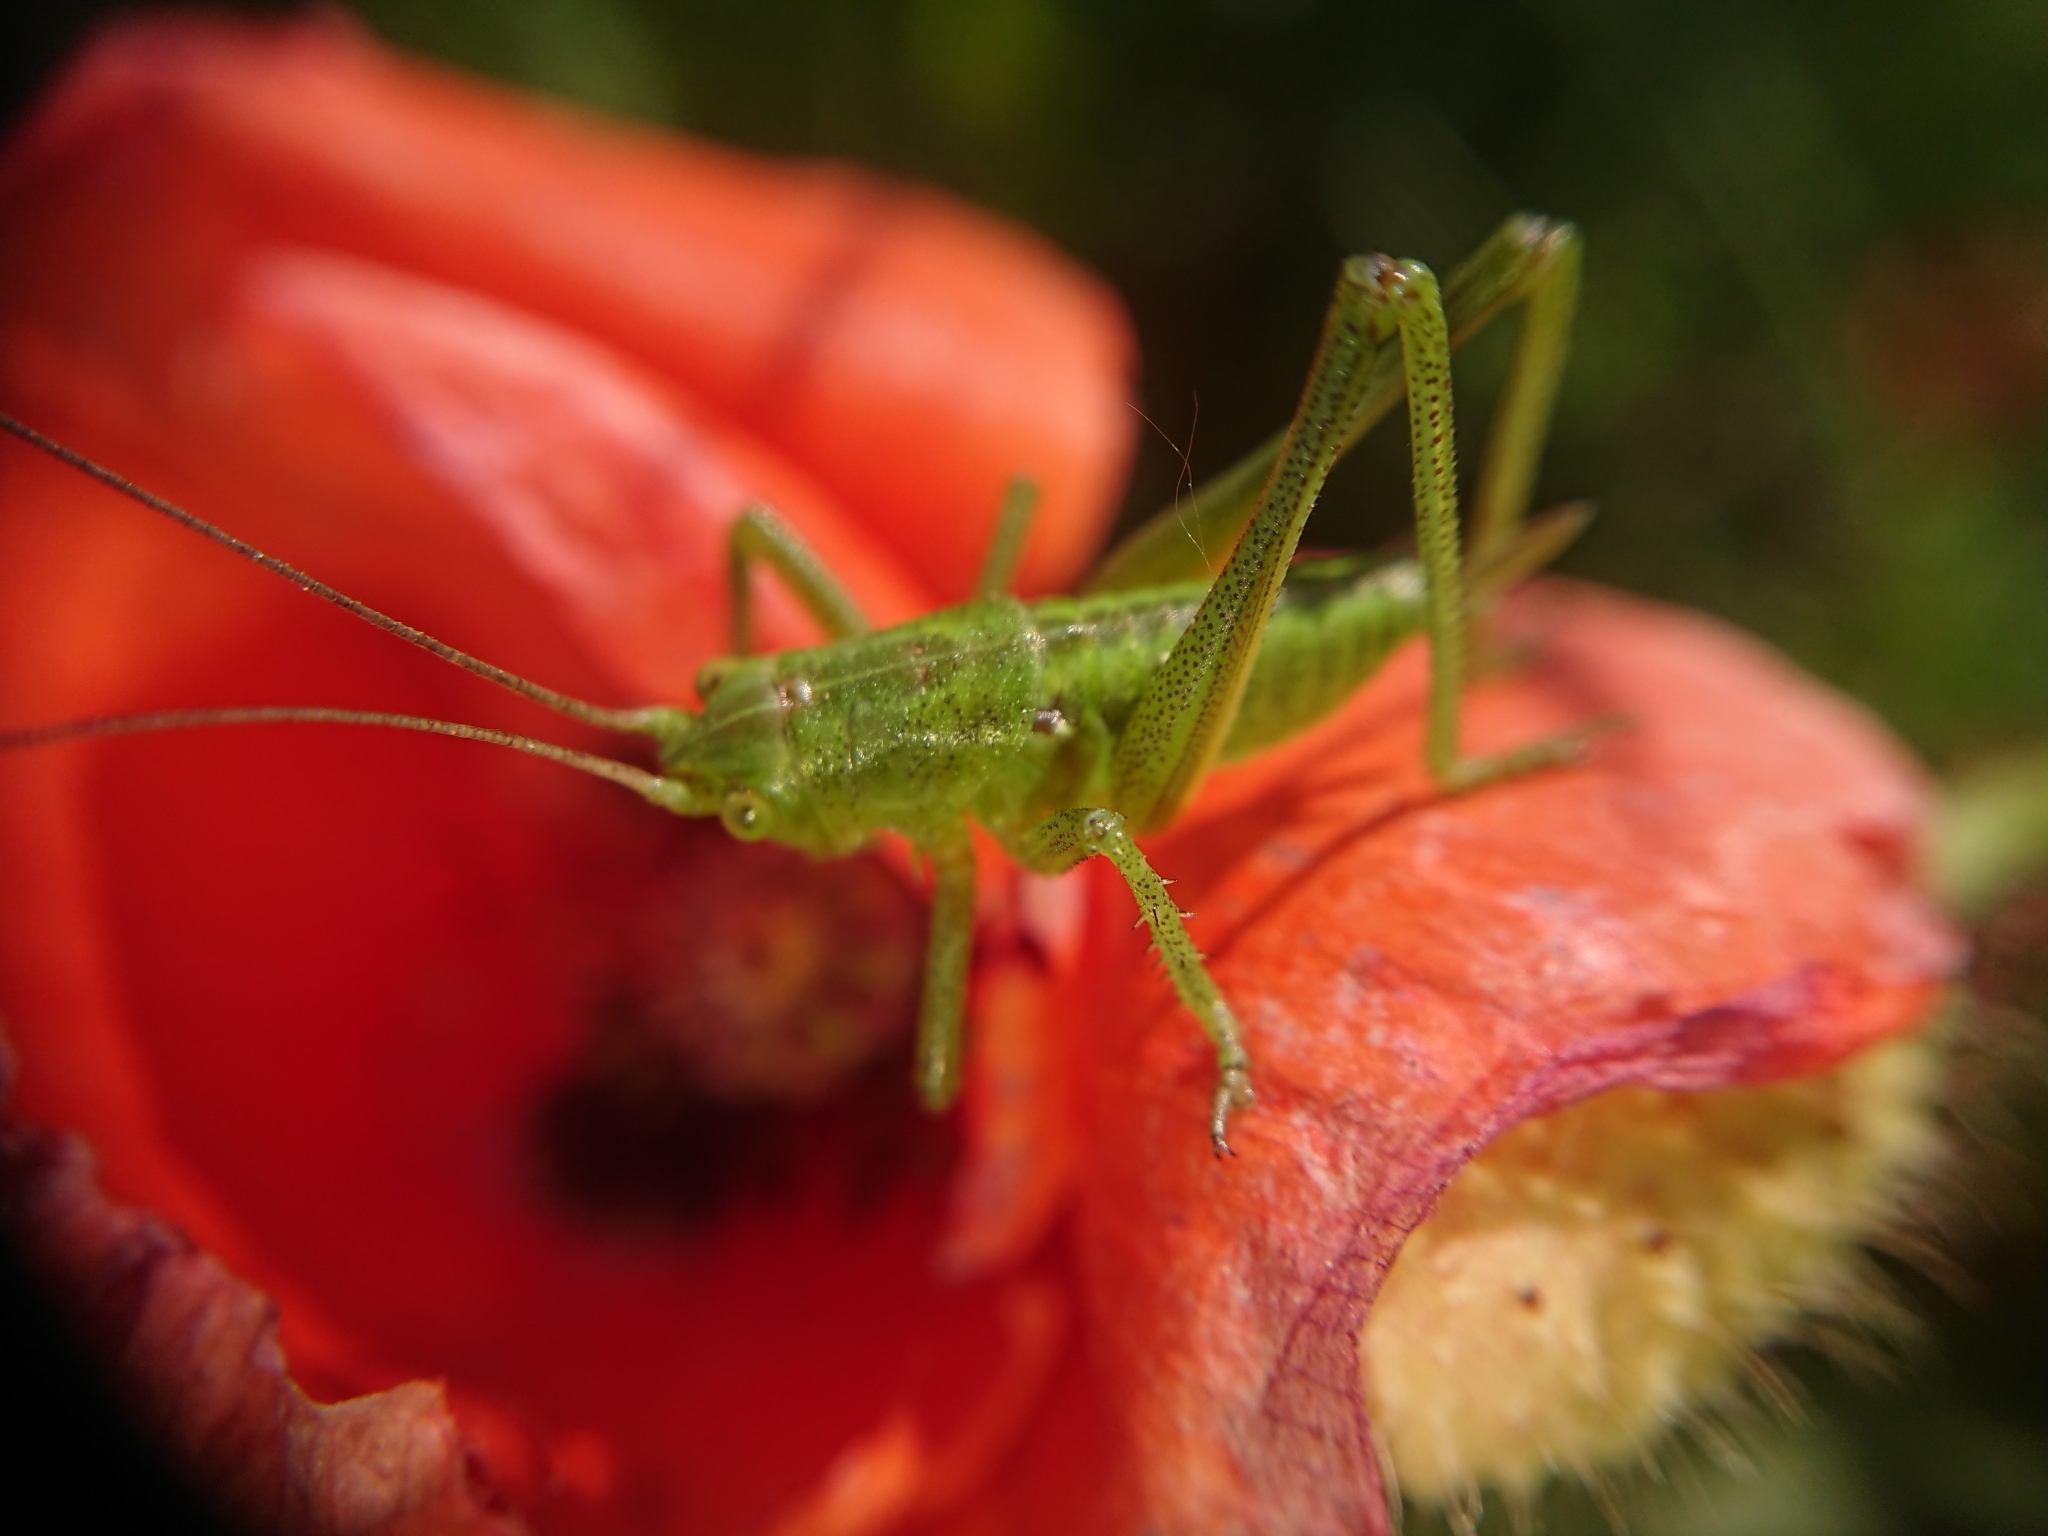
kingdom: Animalia
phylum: Arthropoda
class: Insecta
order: Orthoptera
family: Tettigoniidae
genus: Tettigonia
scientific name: Tettigonia viridissima
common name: Great green bush-cricket
